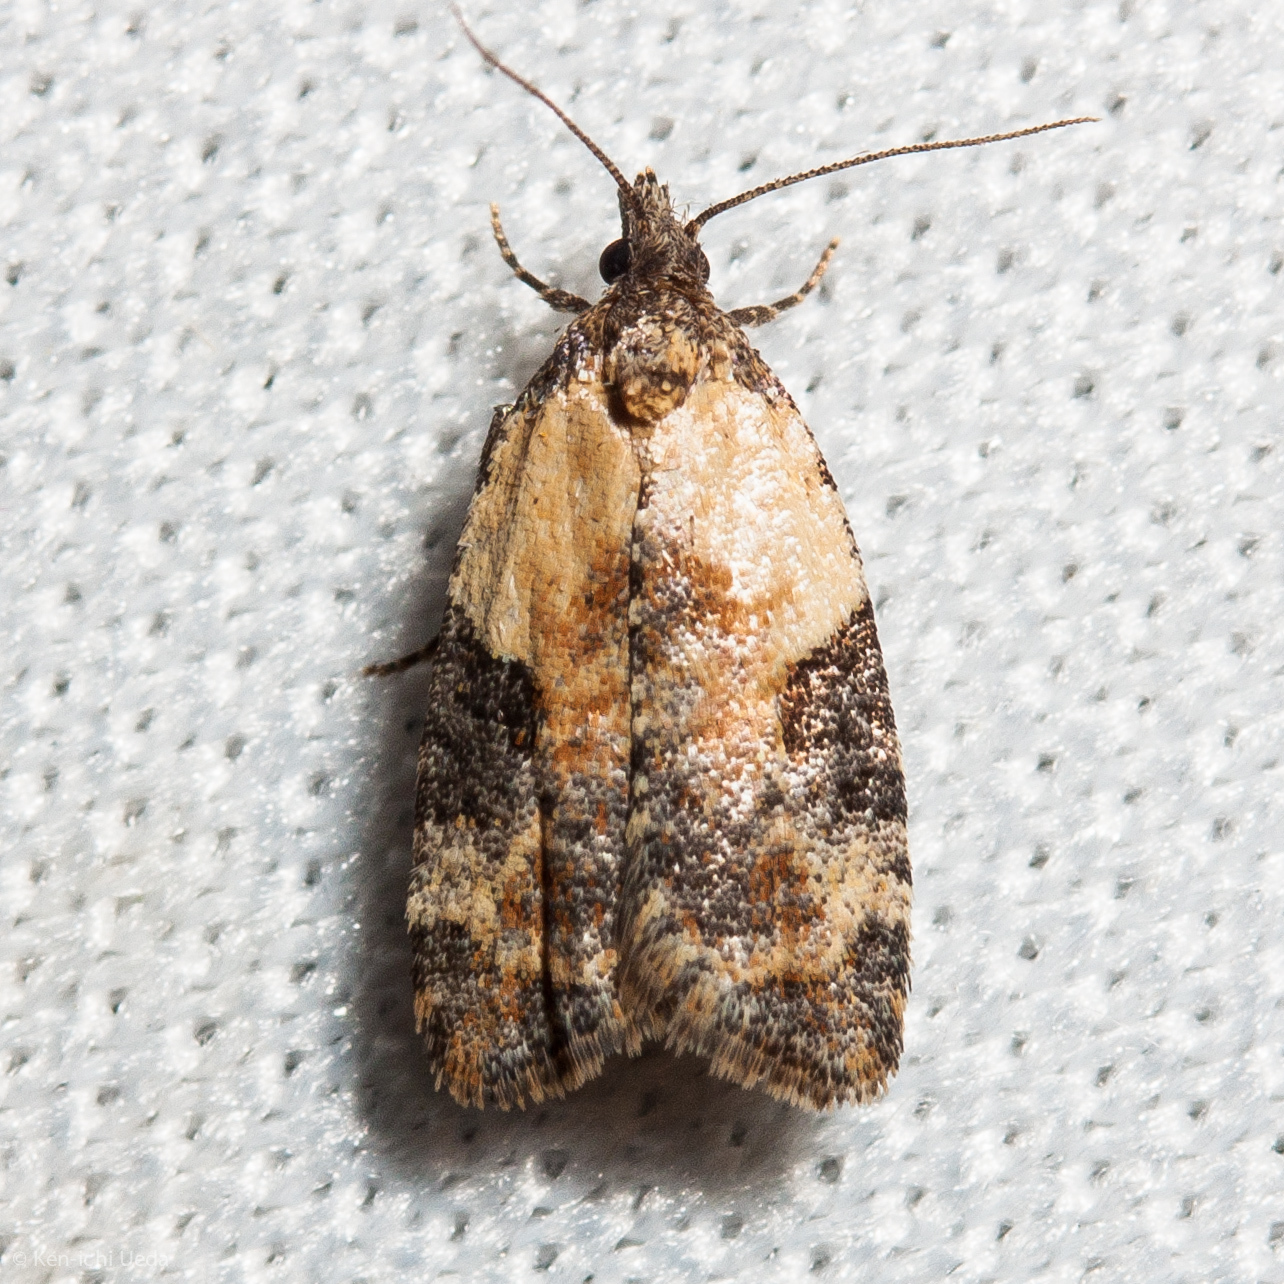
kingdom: Animalia
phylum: Arthropoda
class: Insecta
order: Lepidoptera
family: Tortricidae
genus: Anopina
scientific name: Anopina triangulana
